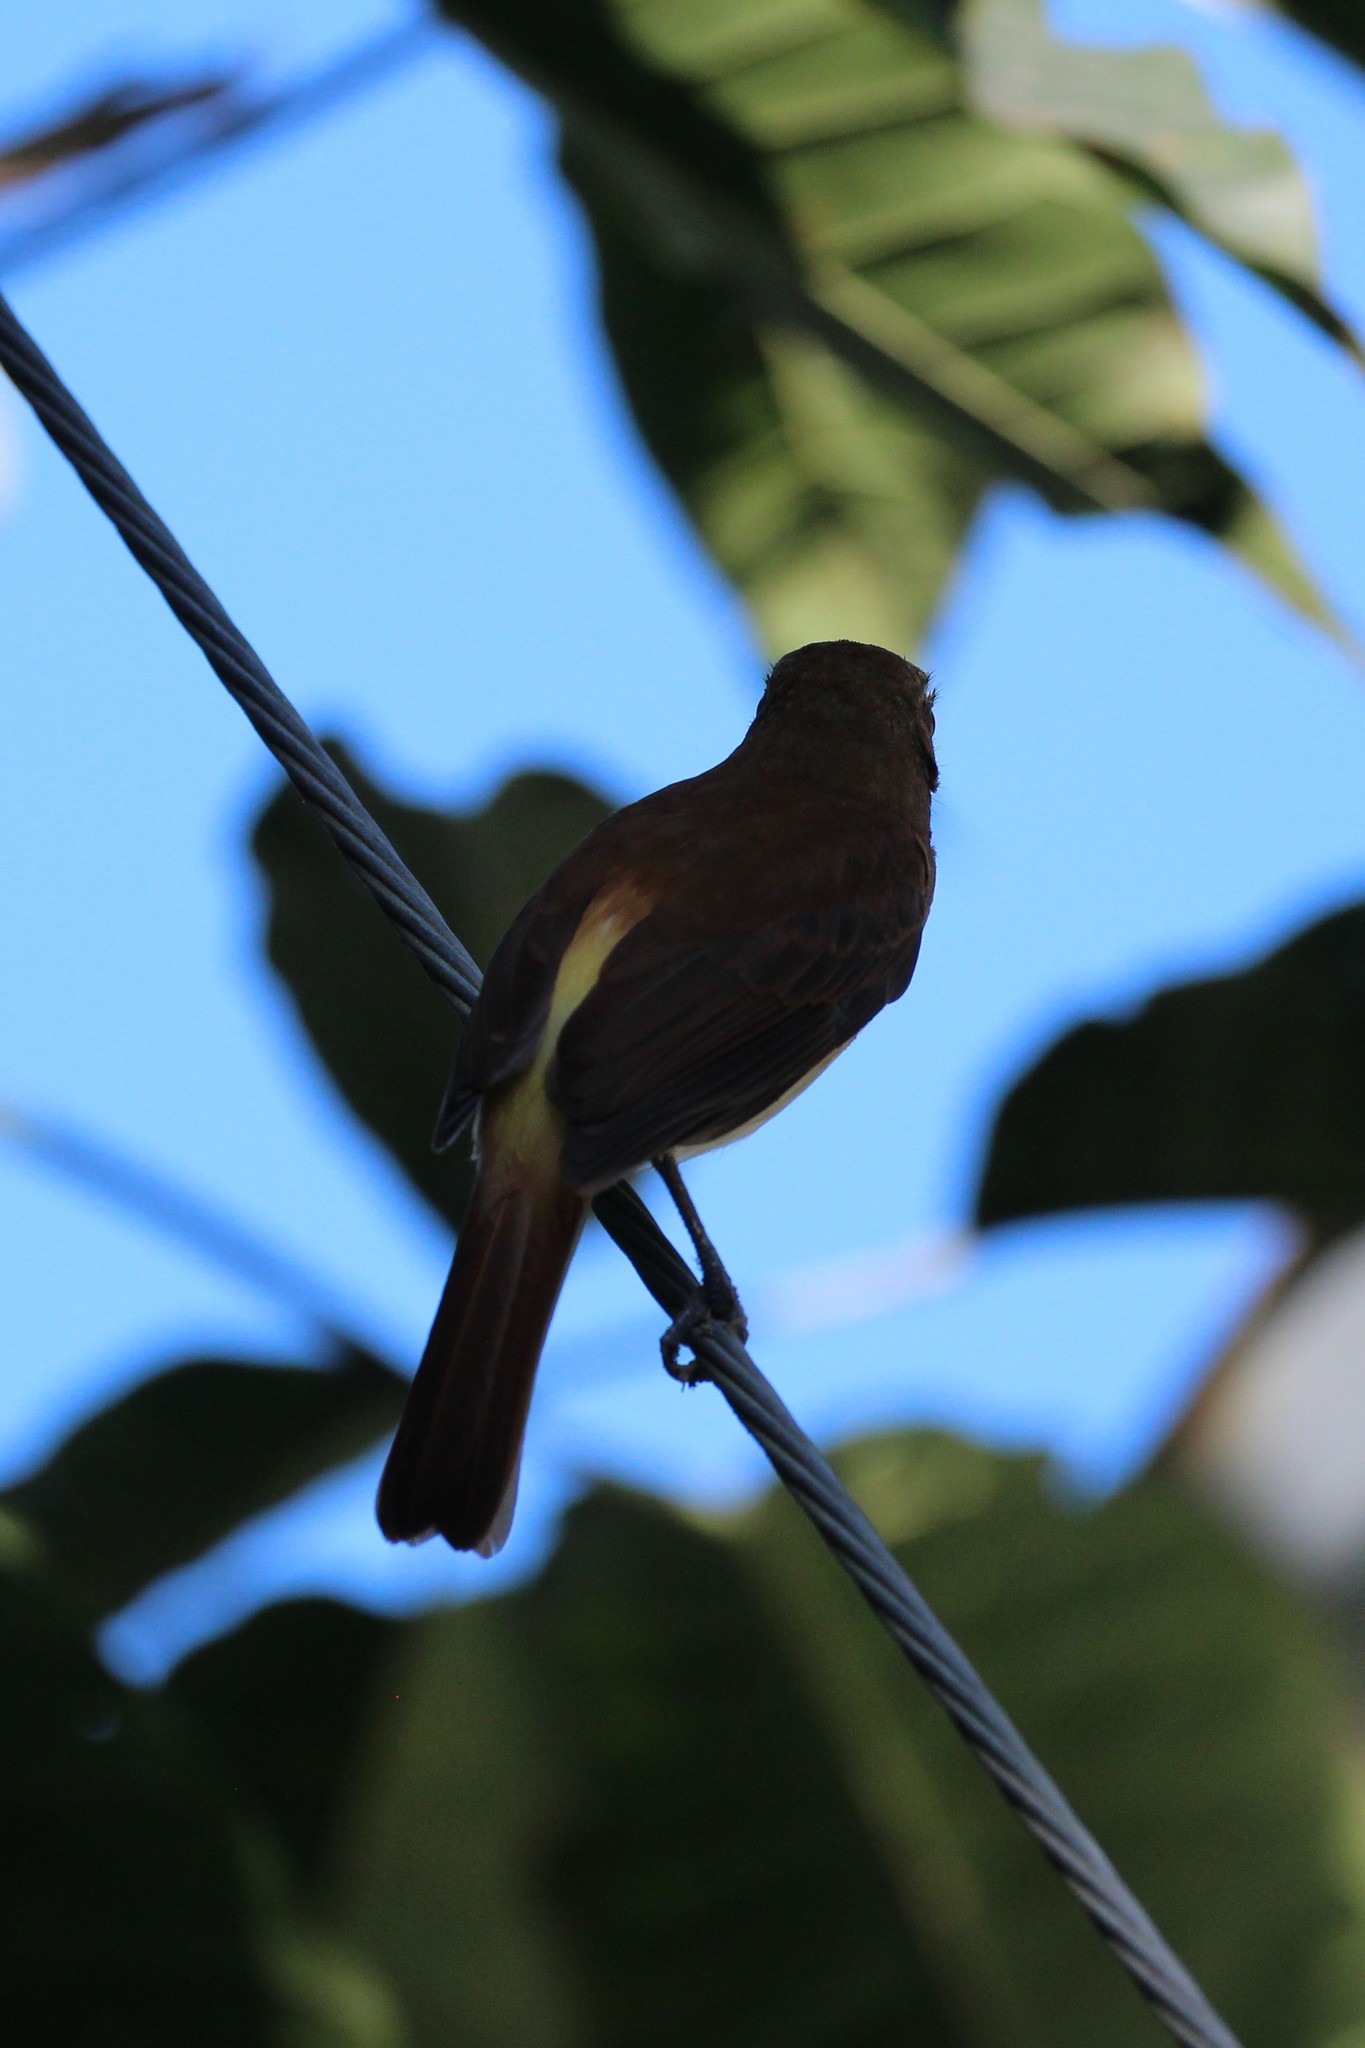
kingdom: Animalia
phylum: Chordata
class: Aves
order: Passeriformes
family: Tyrannidae
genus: Attila
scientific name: Attila spadiceus
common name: Bright-rumped attila
